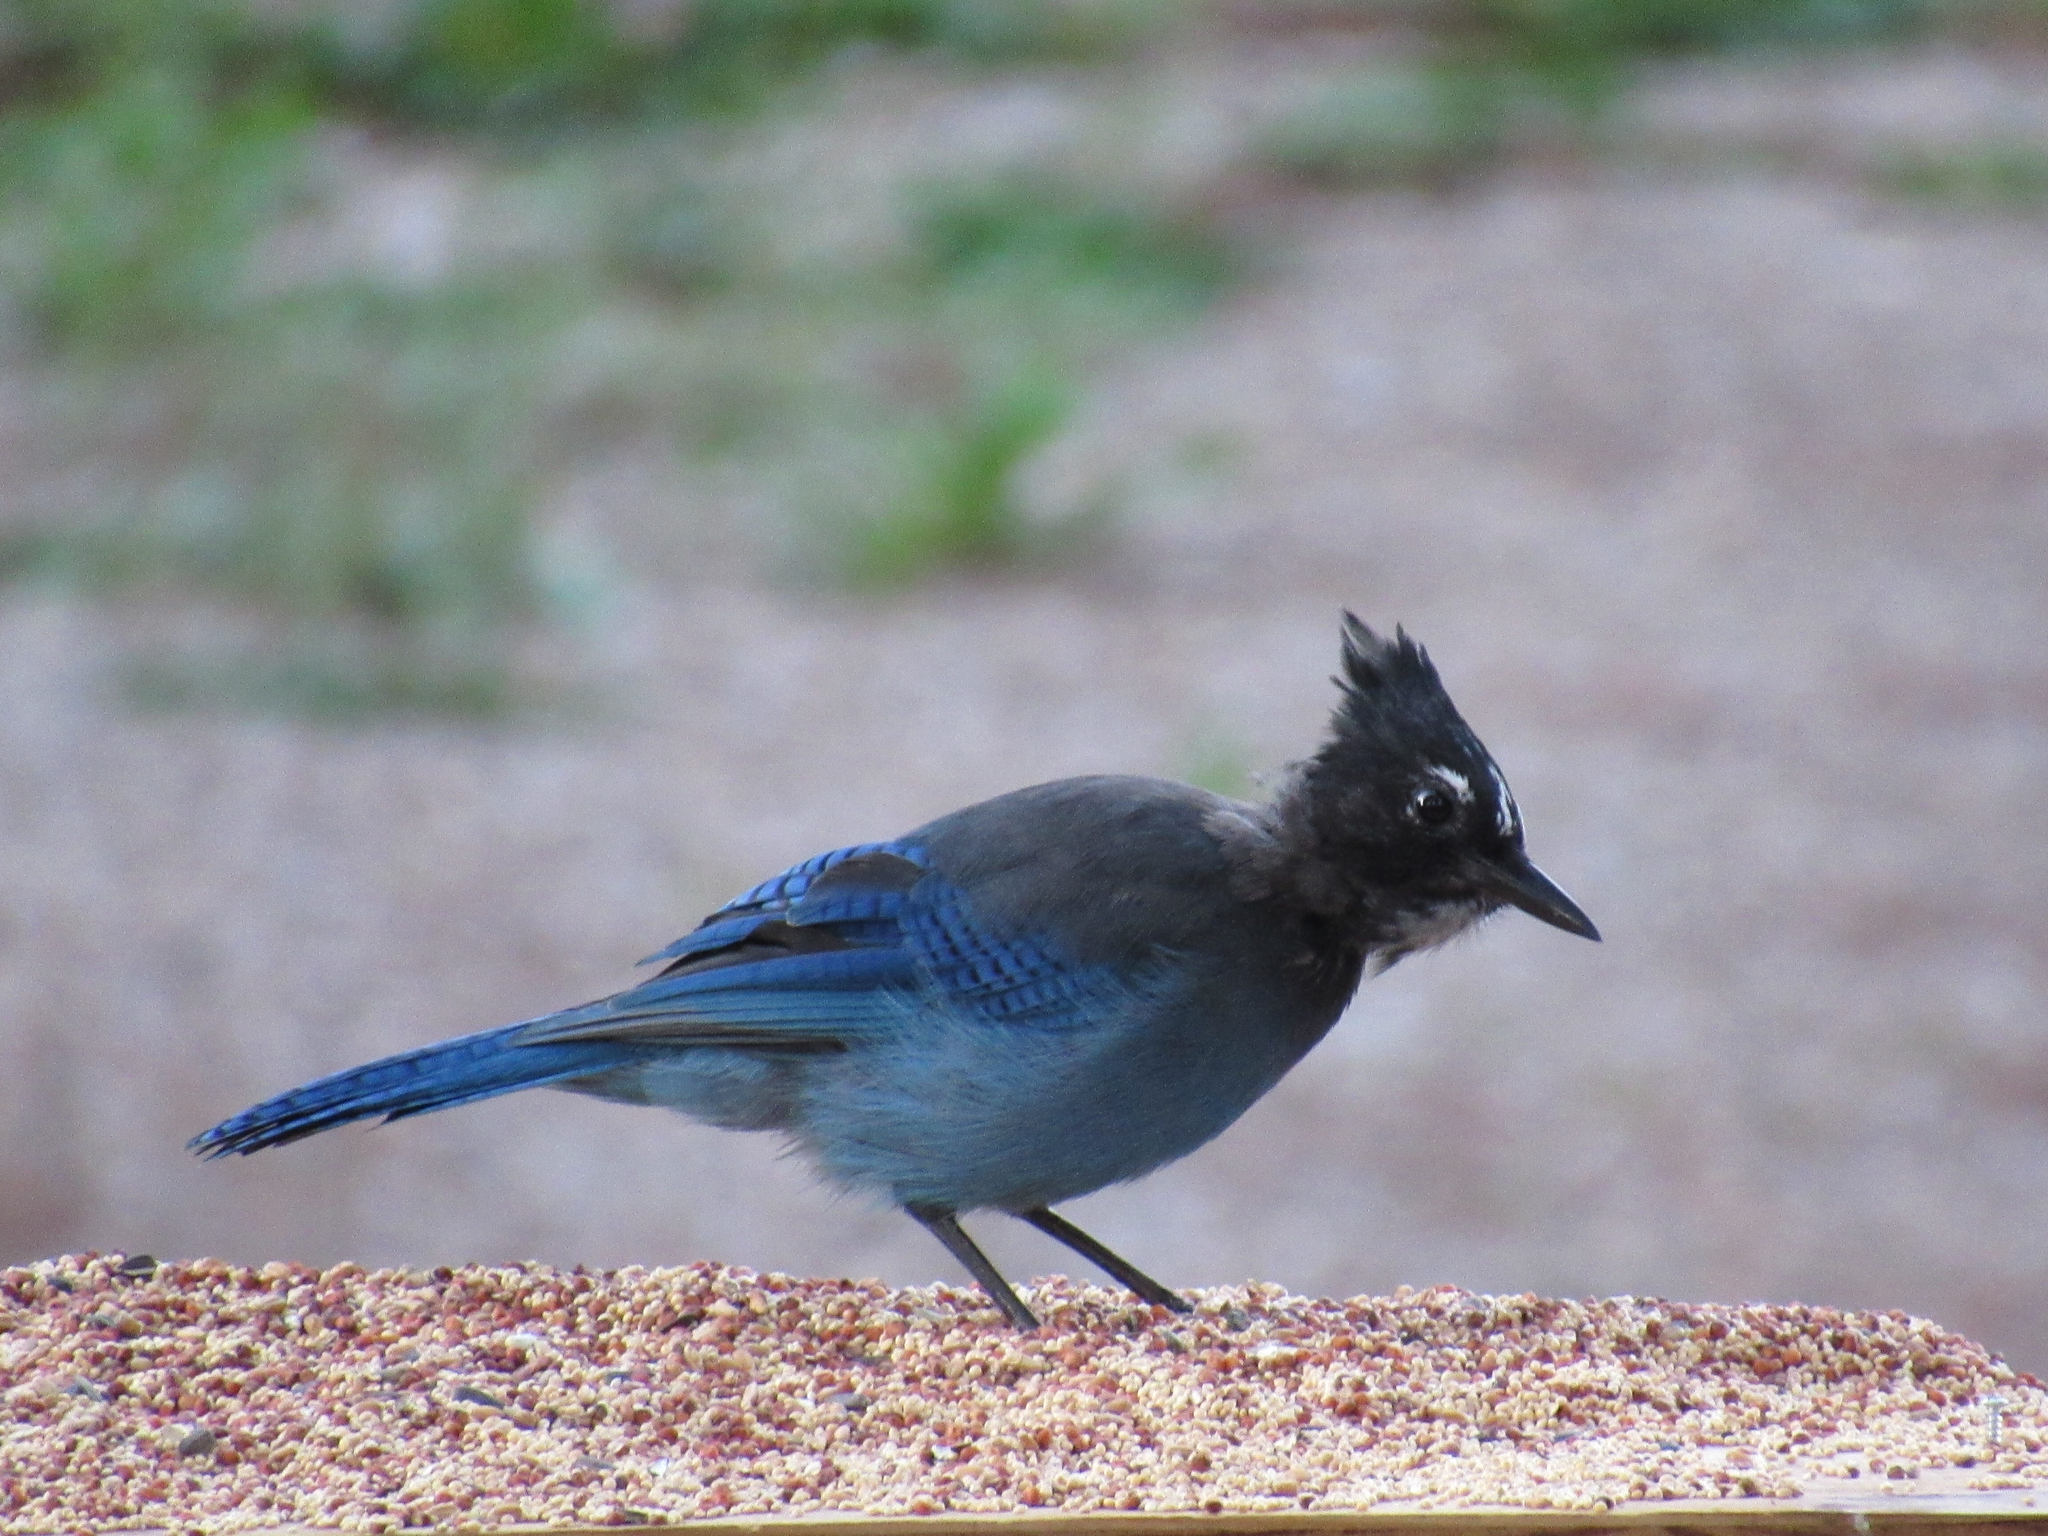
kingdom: Animalia
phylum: Chordata
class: Aves
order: Passeriformes
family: Corvidae
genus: Cyanocitta
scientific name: Cyanocitta stelleri
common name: Steller's jay
